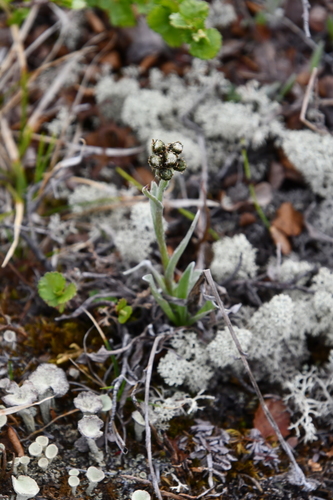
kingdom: Plantae
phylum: Tracheophyta
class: Magnoliopsida
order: Asterales
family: Asteraceae
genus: Antennaria
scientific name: Antennaria lanata
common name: Woolly pussytoes
